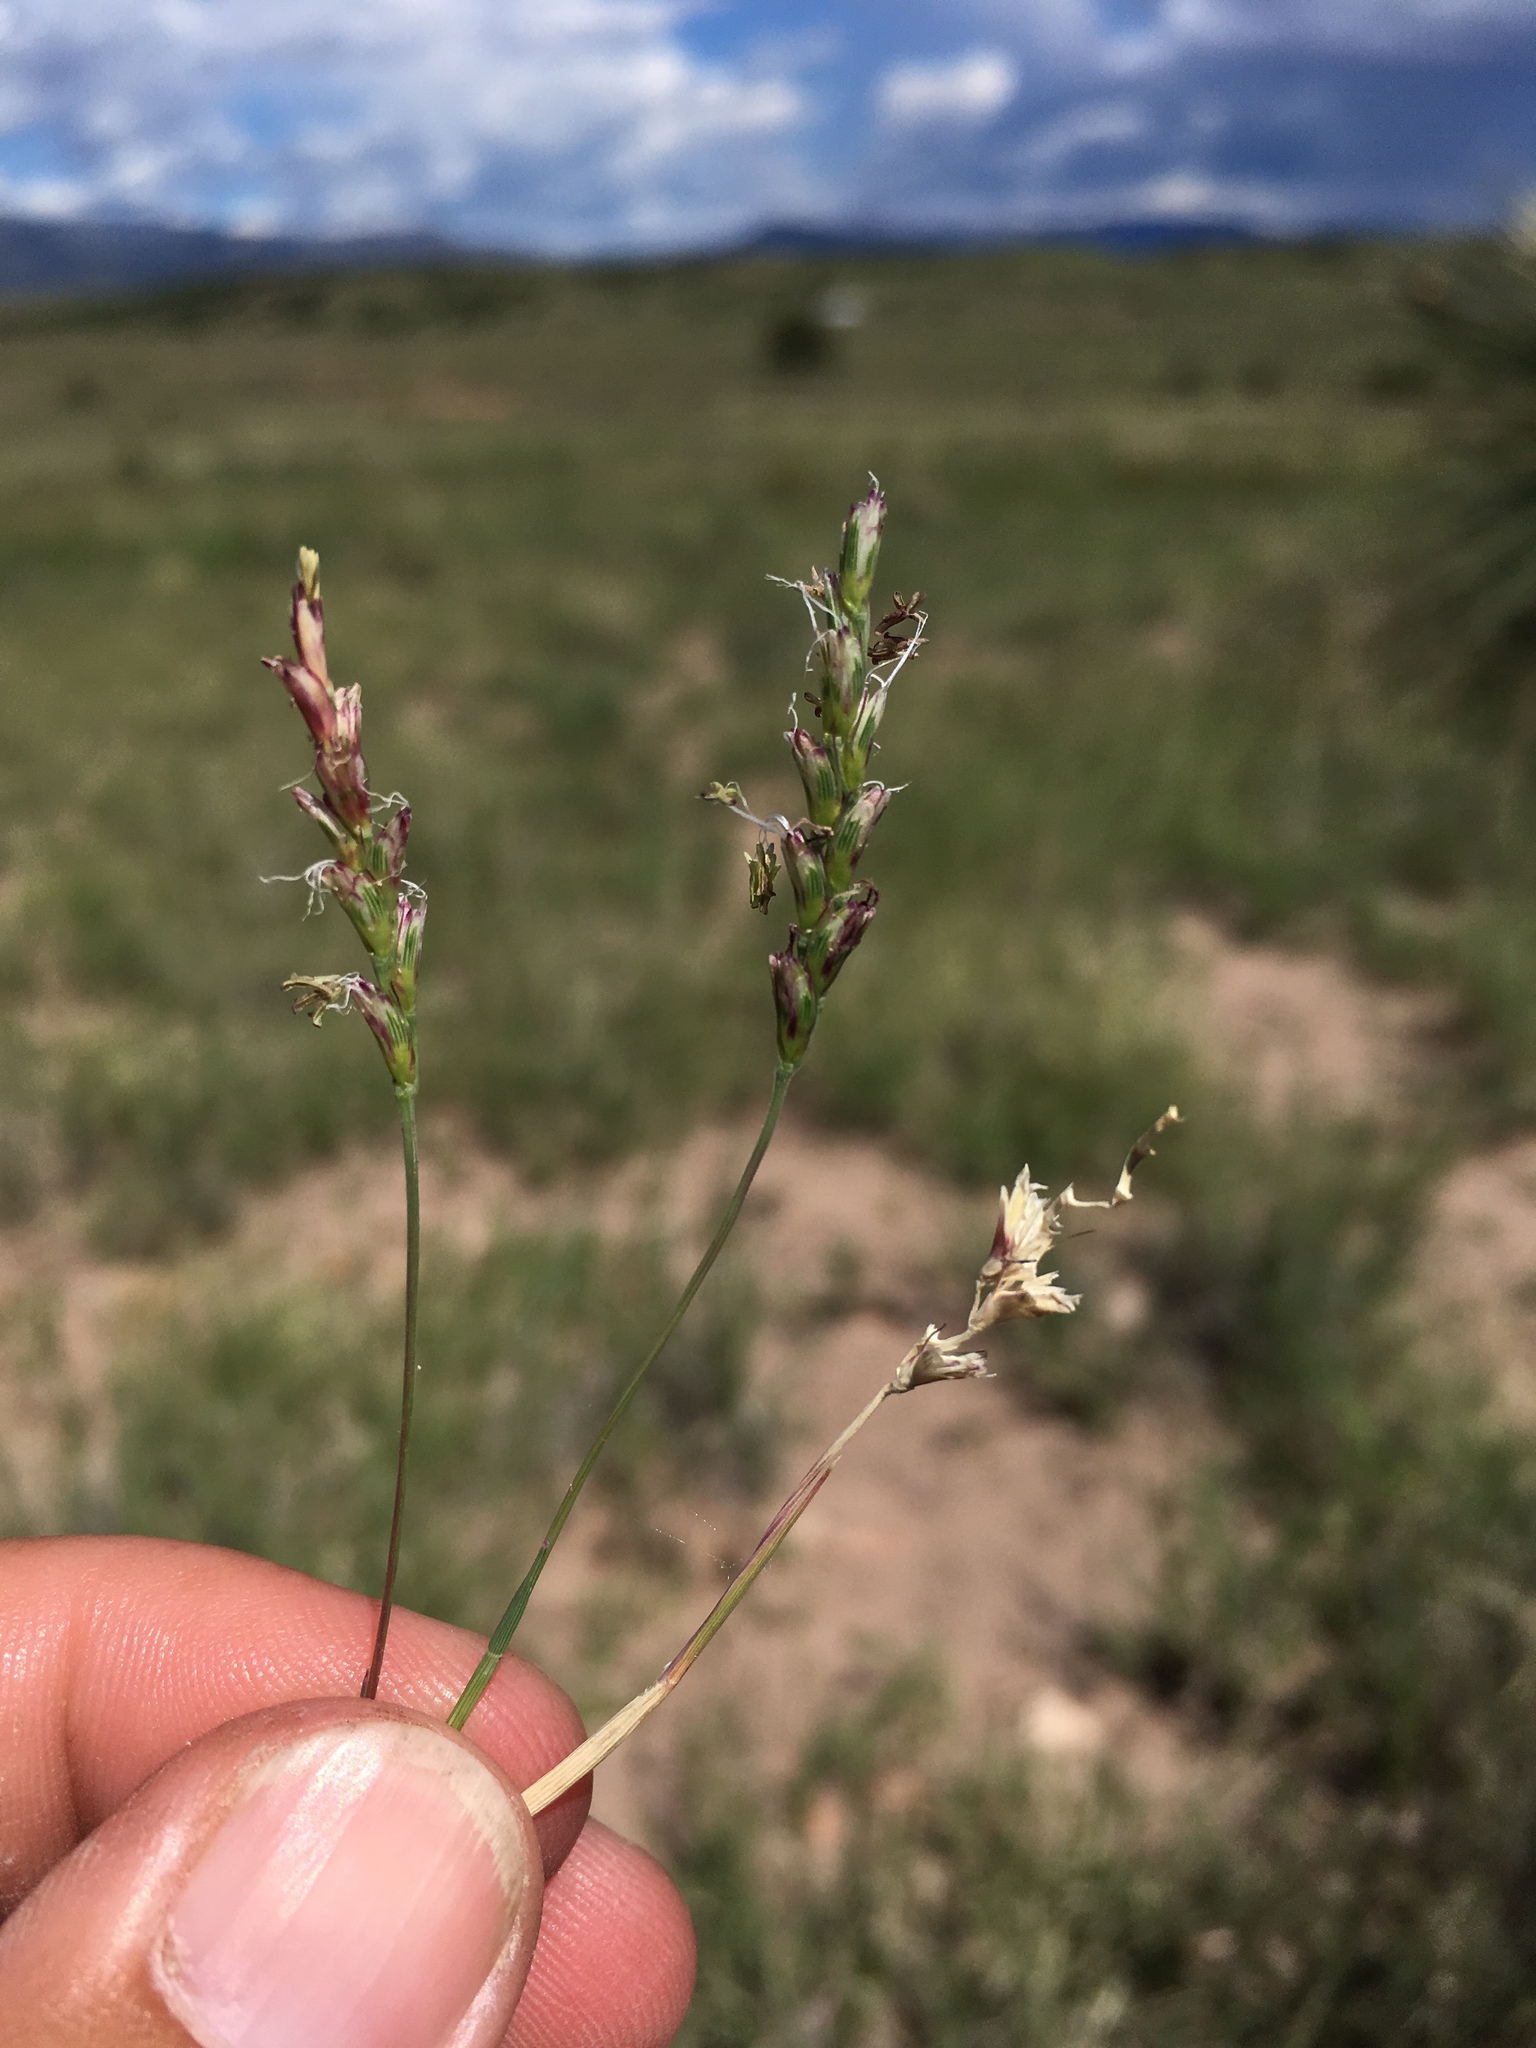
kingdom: Plantae
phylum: Tracheophyta
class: Liliopsida
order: Poales
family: Poaceae
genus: Hilaria
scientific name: Hilaria belangeri
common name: Curly-mesquite
